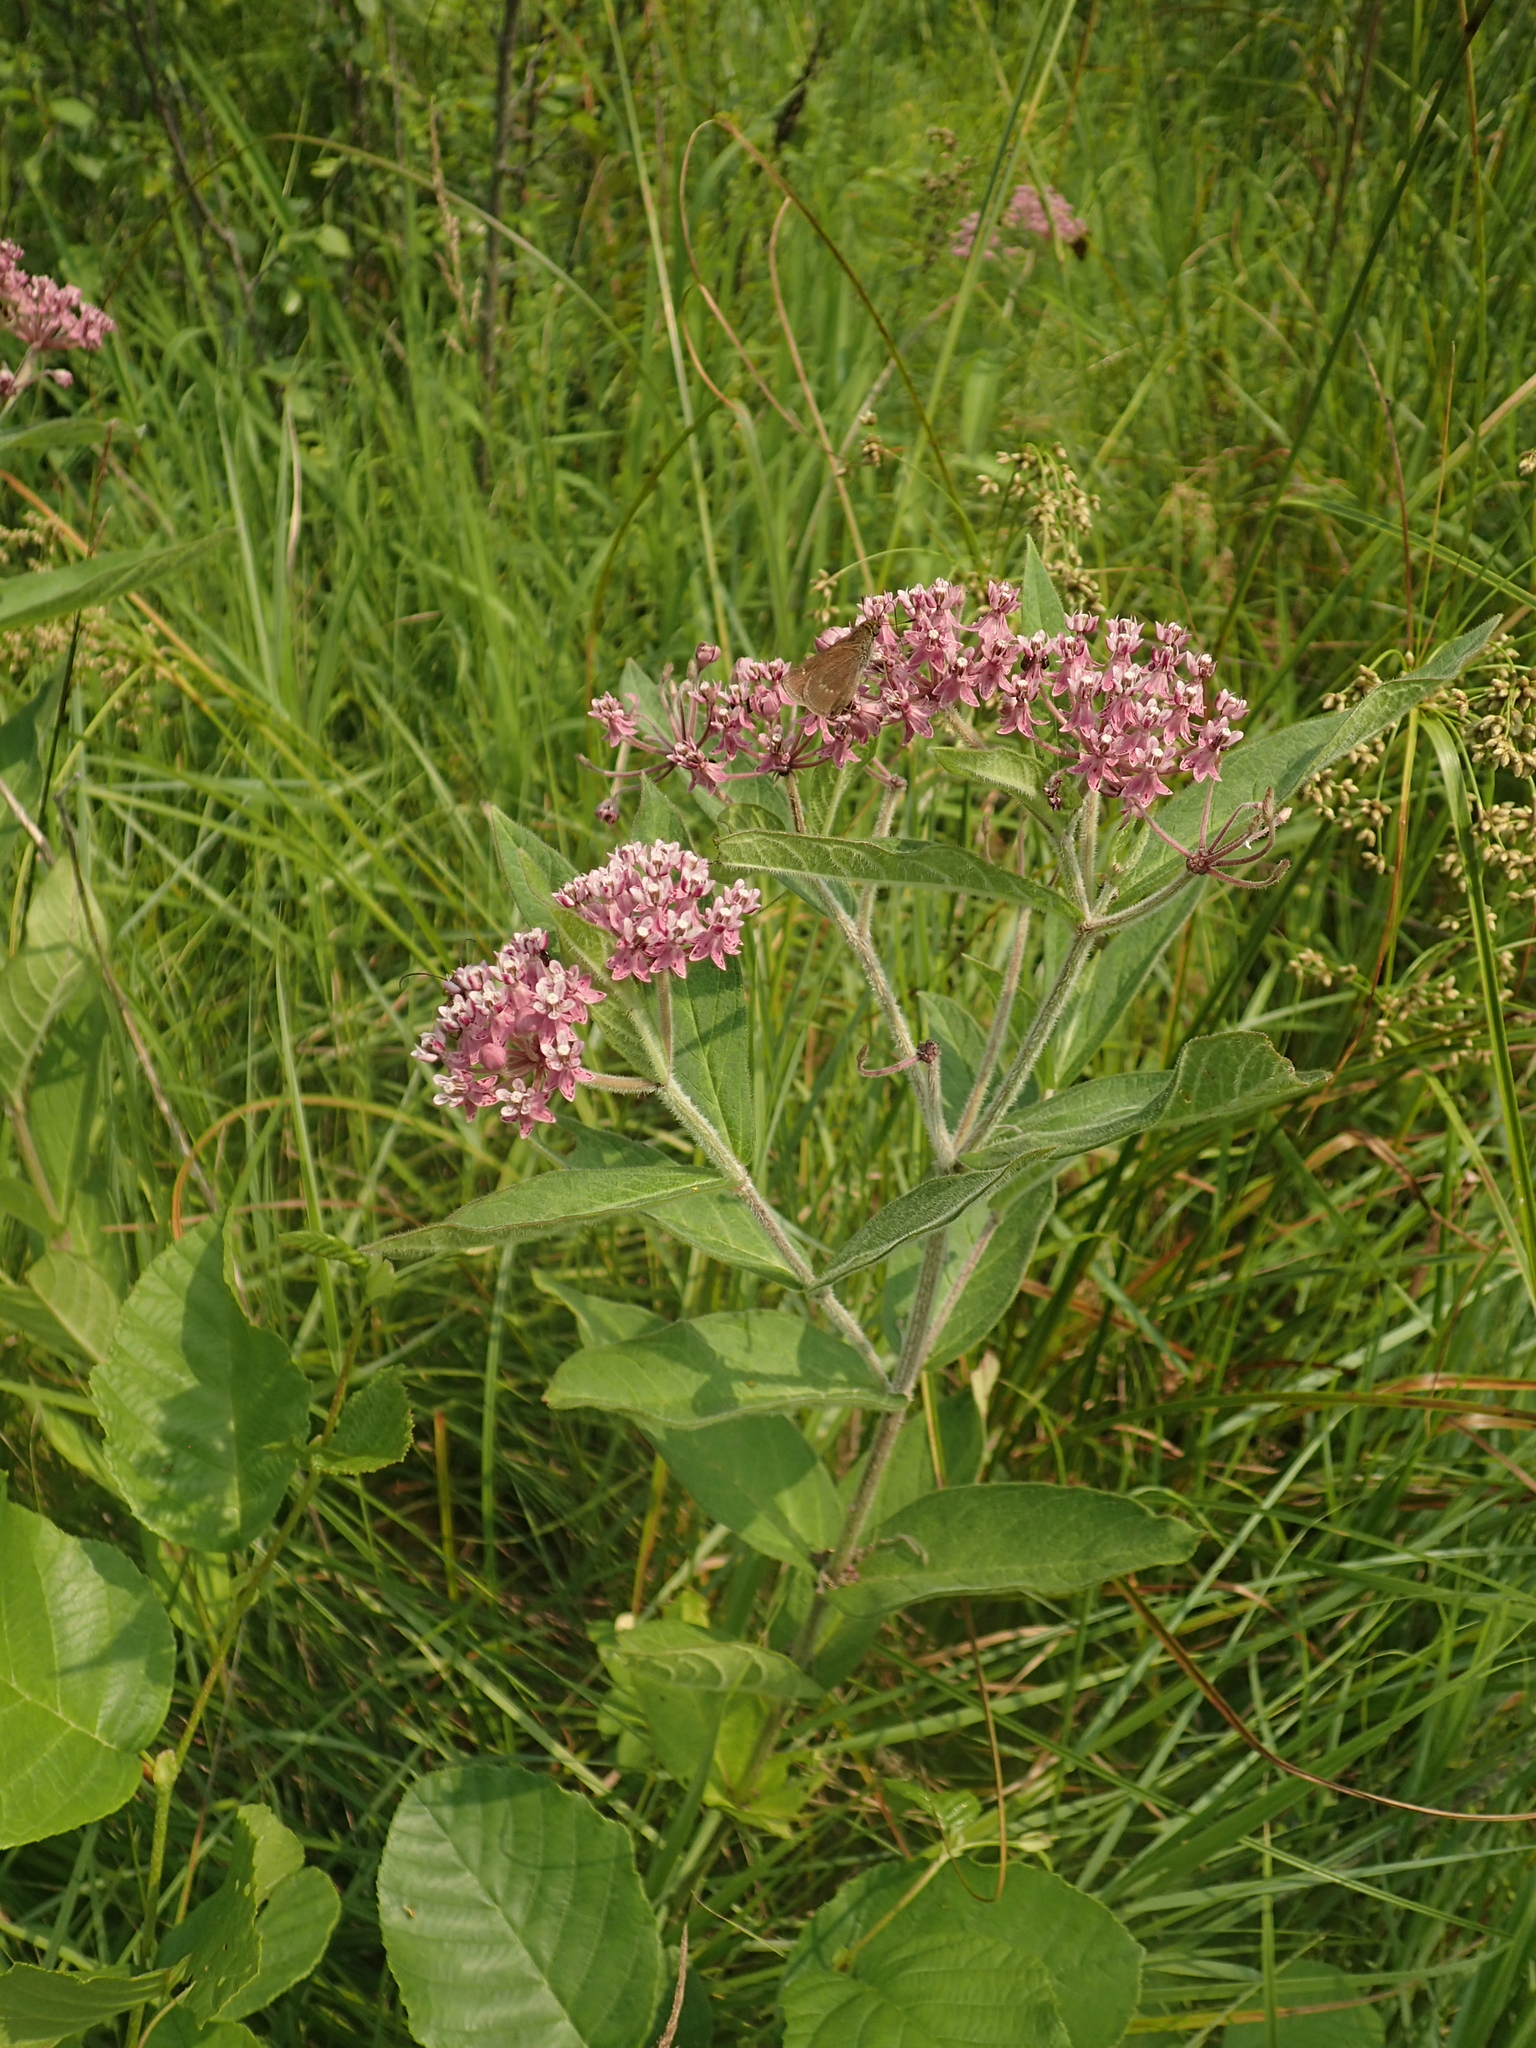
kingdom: Plantae
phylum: Tracheophyta
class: Magnoliopsida
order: Gentianales
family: Apocynaceae
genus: Asclepias
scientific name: Asclepias incarnata
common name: Swamp milkweed
